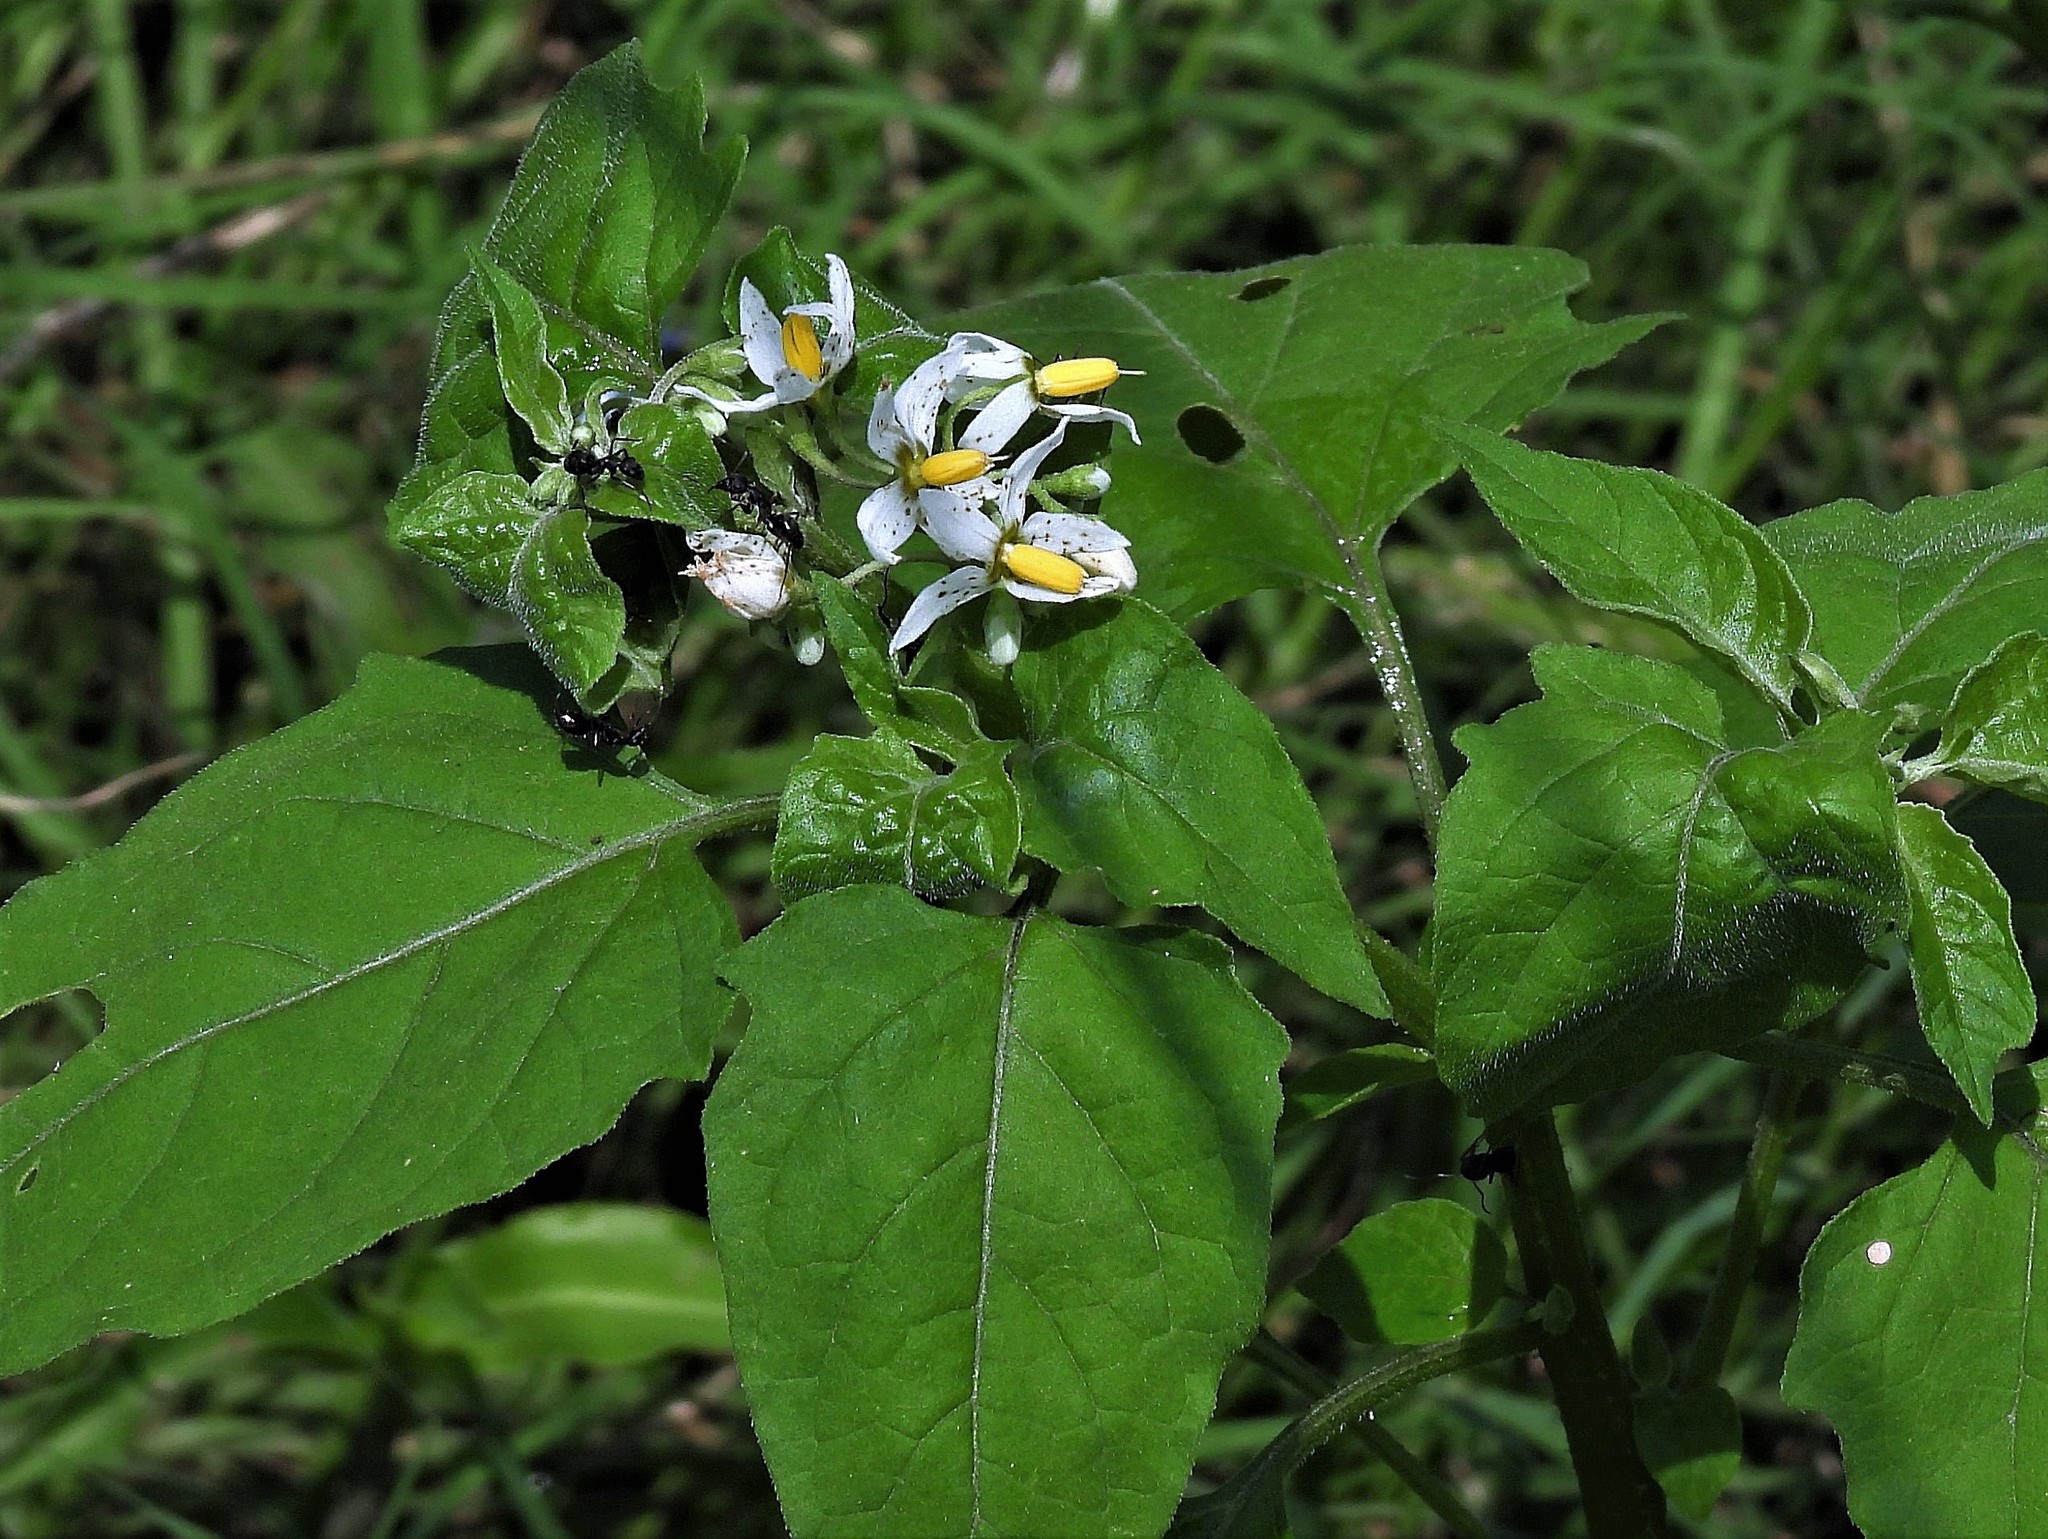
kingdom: Plantae
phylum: Tracheophyta
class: Magnoliopsida
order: Solanales
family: Solanaceae
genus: Solanum
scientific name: Solanum chenopodioides
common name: Tall nightshade
